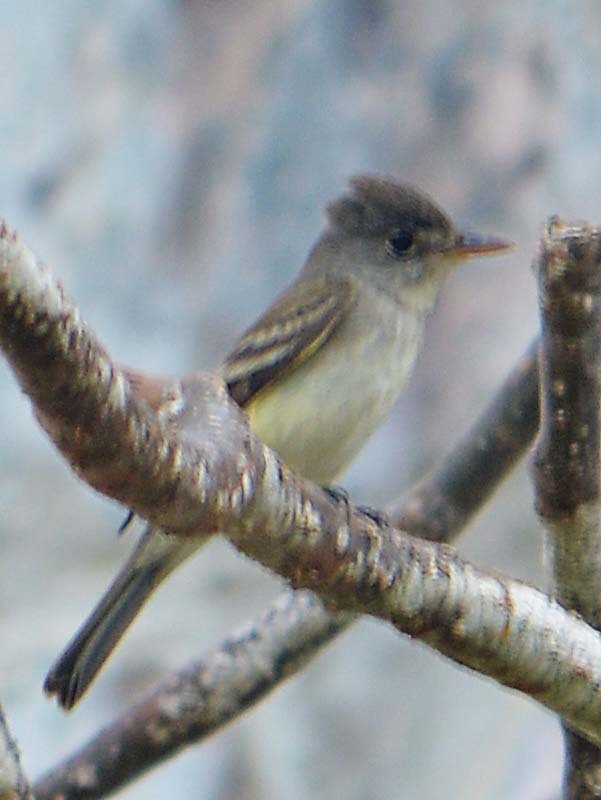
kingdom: Animalia
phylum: Chordata
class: Aves
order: Passeriformes
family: Tyrannidae
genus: Contopus
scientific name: Contopus sordidulus
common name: Western wood-pewee
